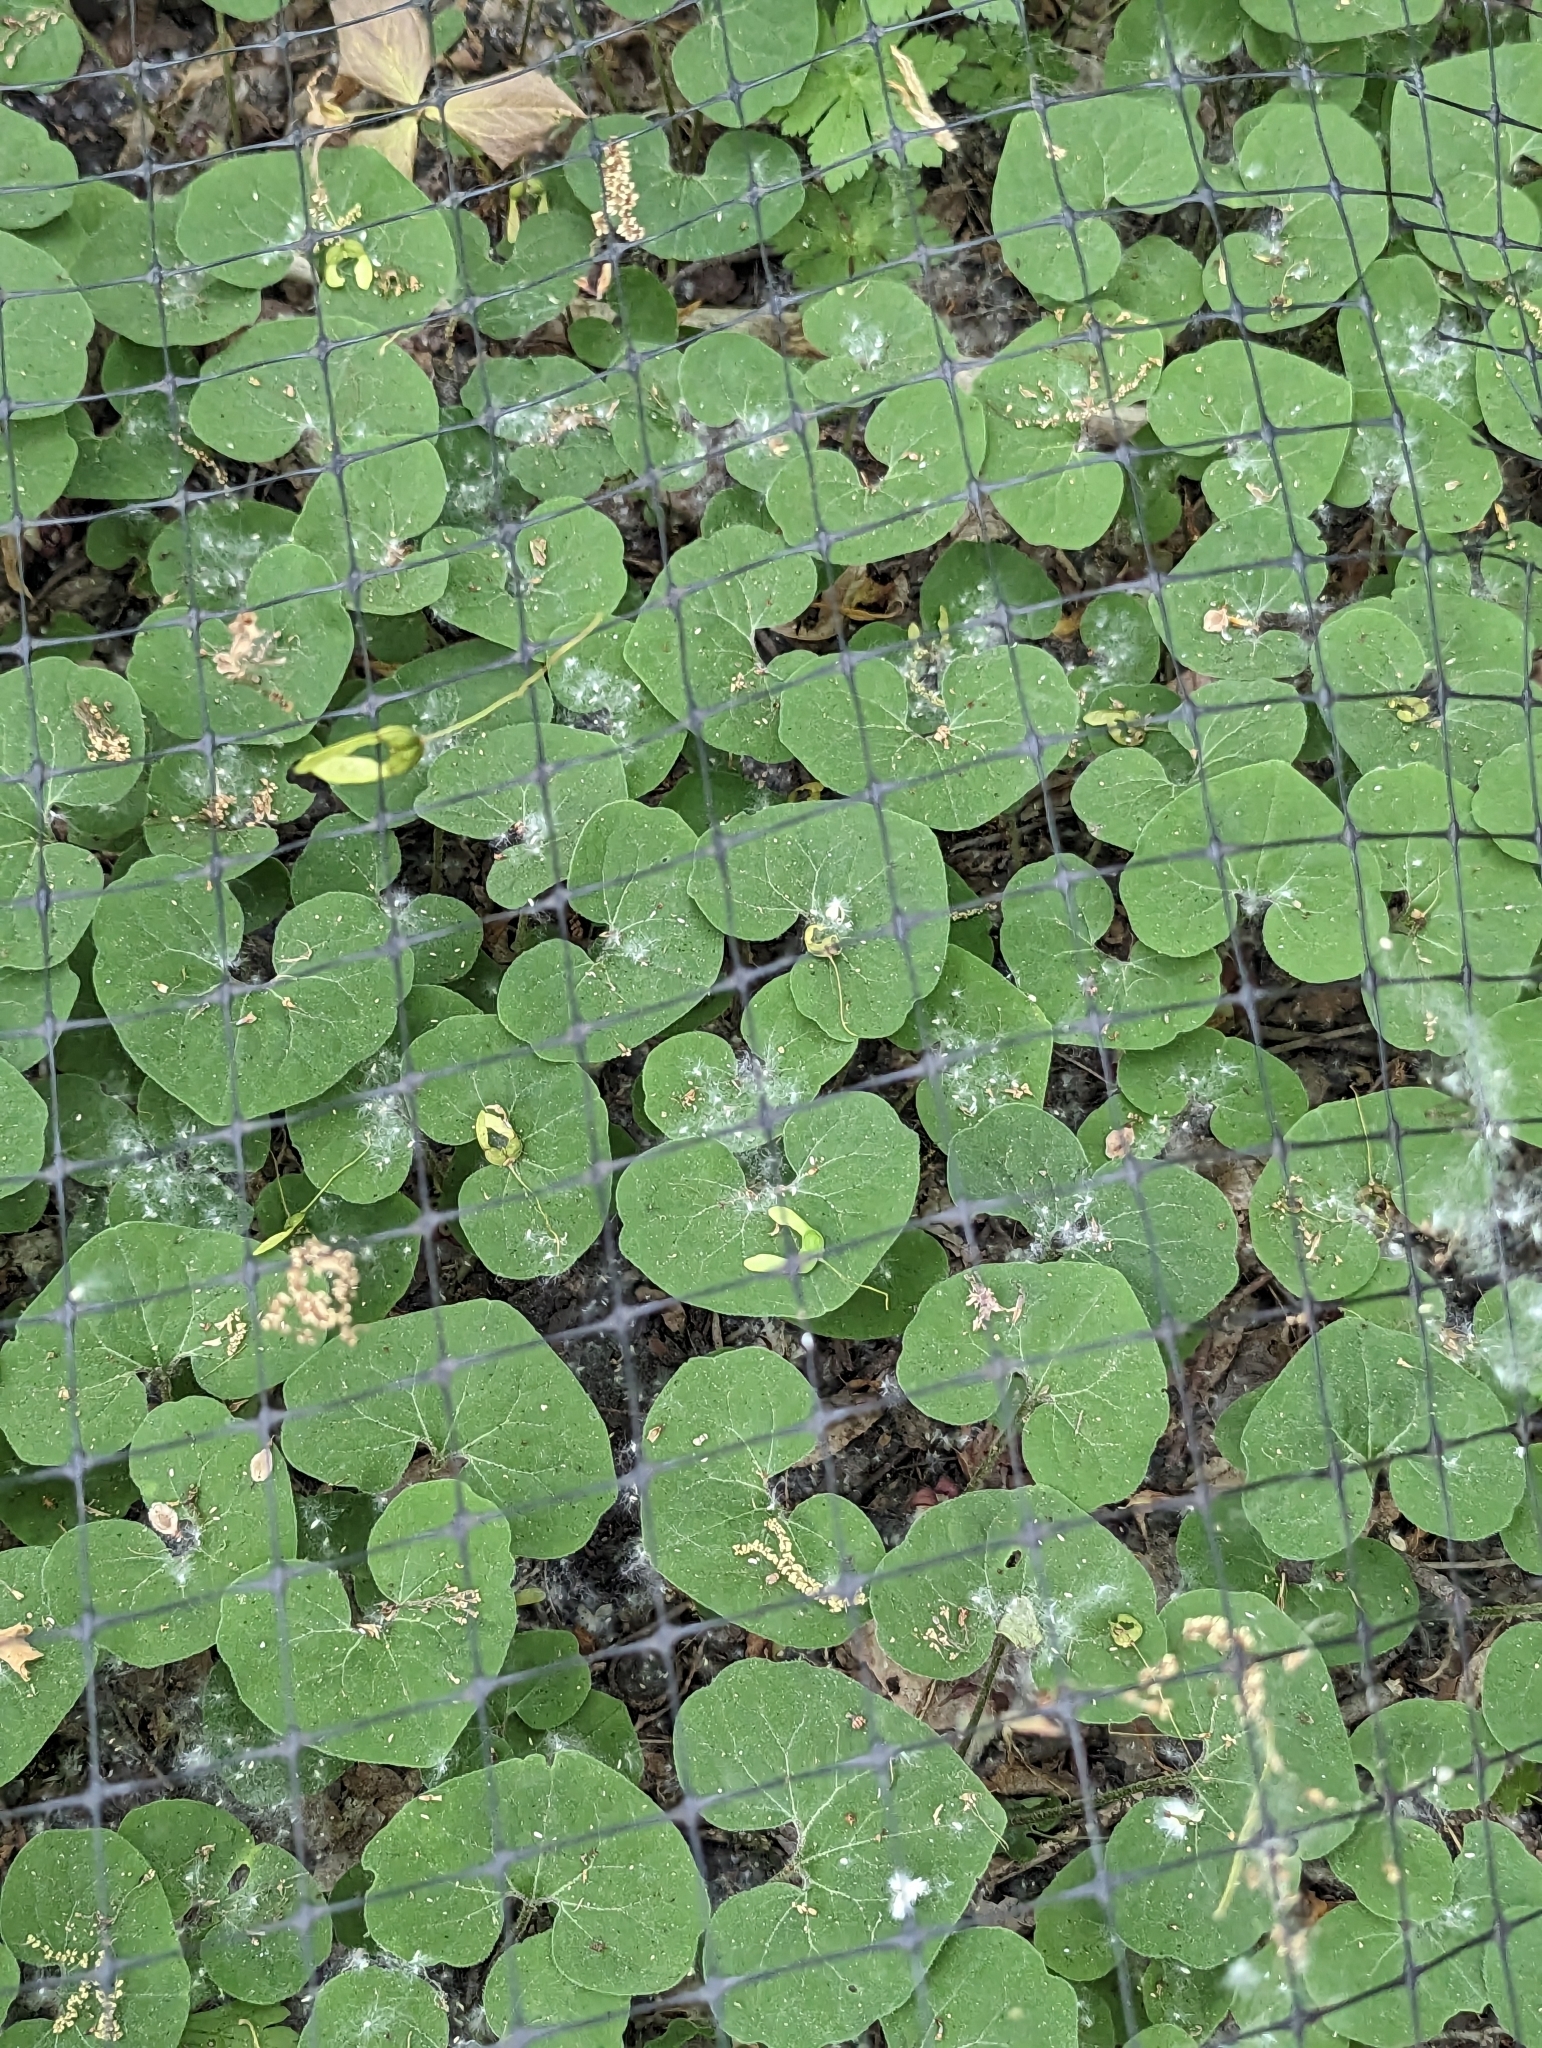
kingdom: Plantae
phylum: Tracheophyta
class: Magnoliopsida
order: Piperales
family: Aristolochiaceae
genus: Asarum
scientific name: Asarum canadense
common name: Wild ginger
